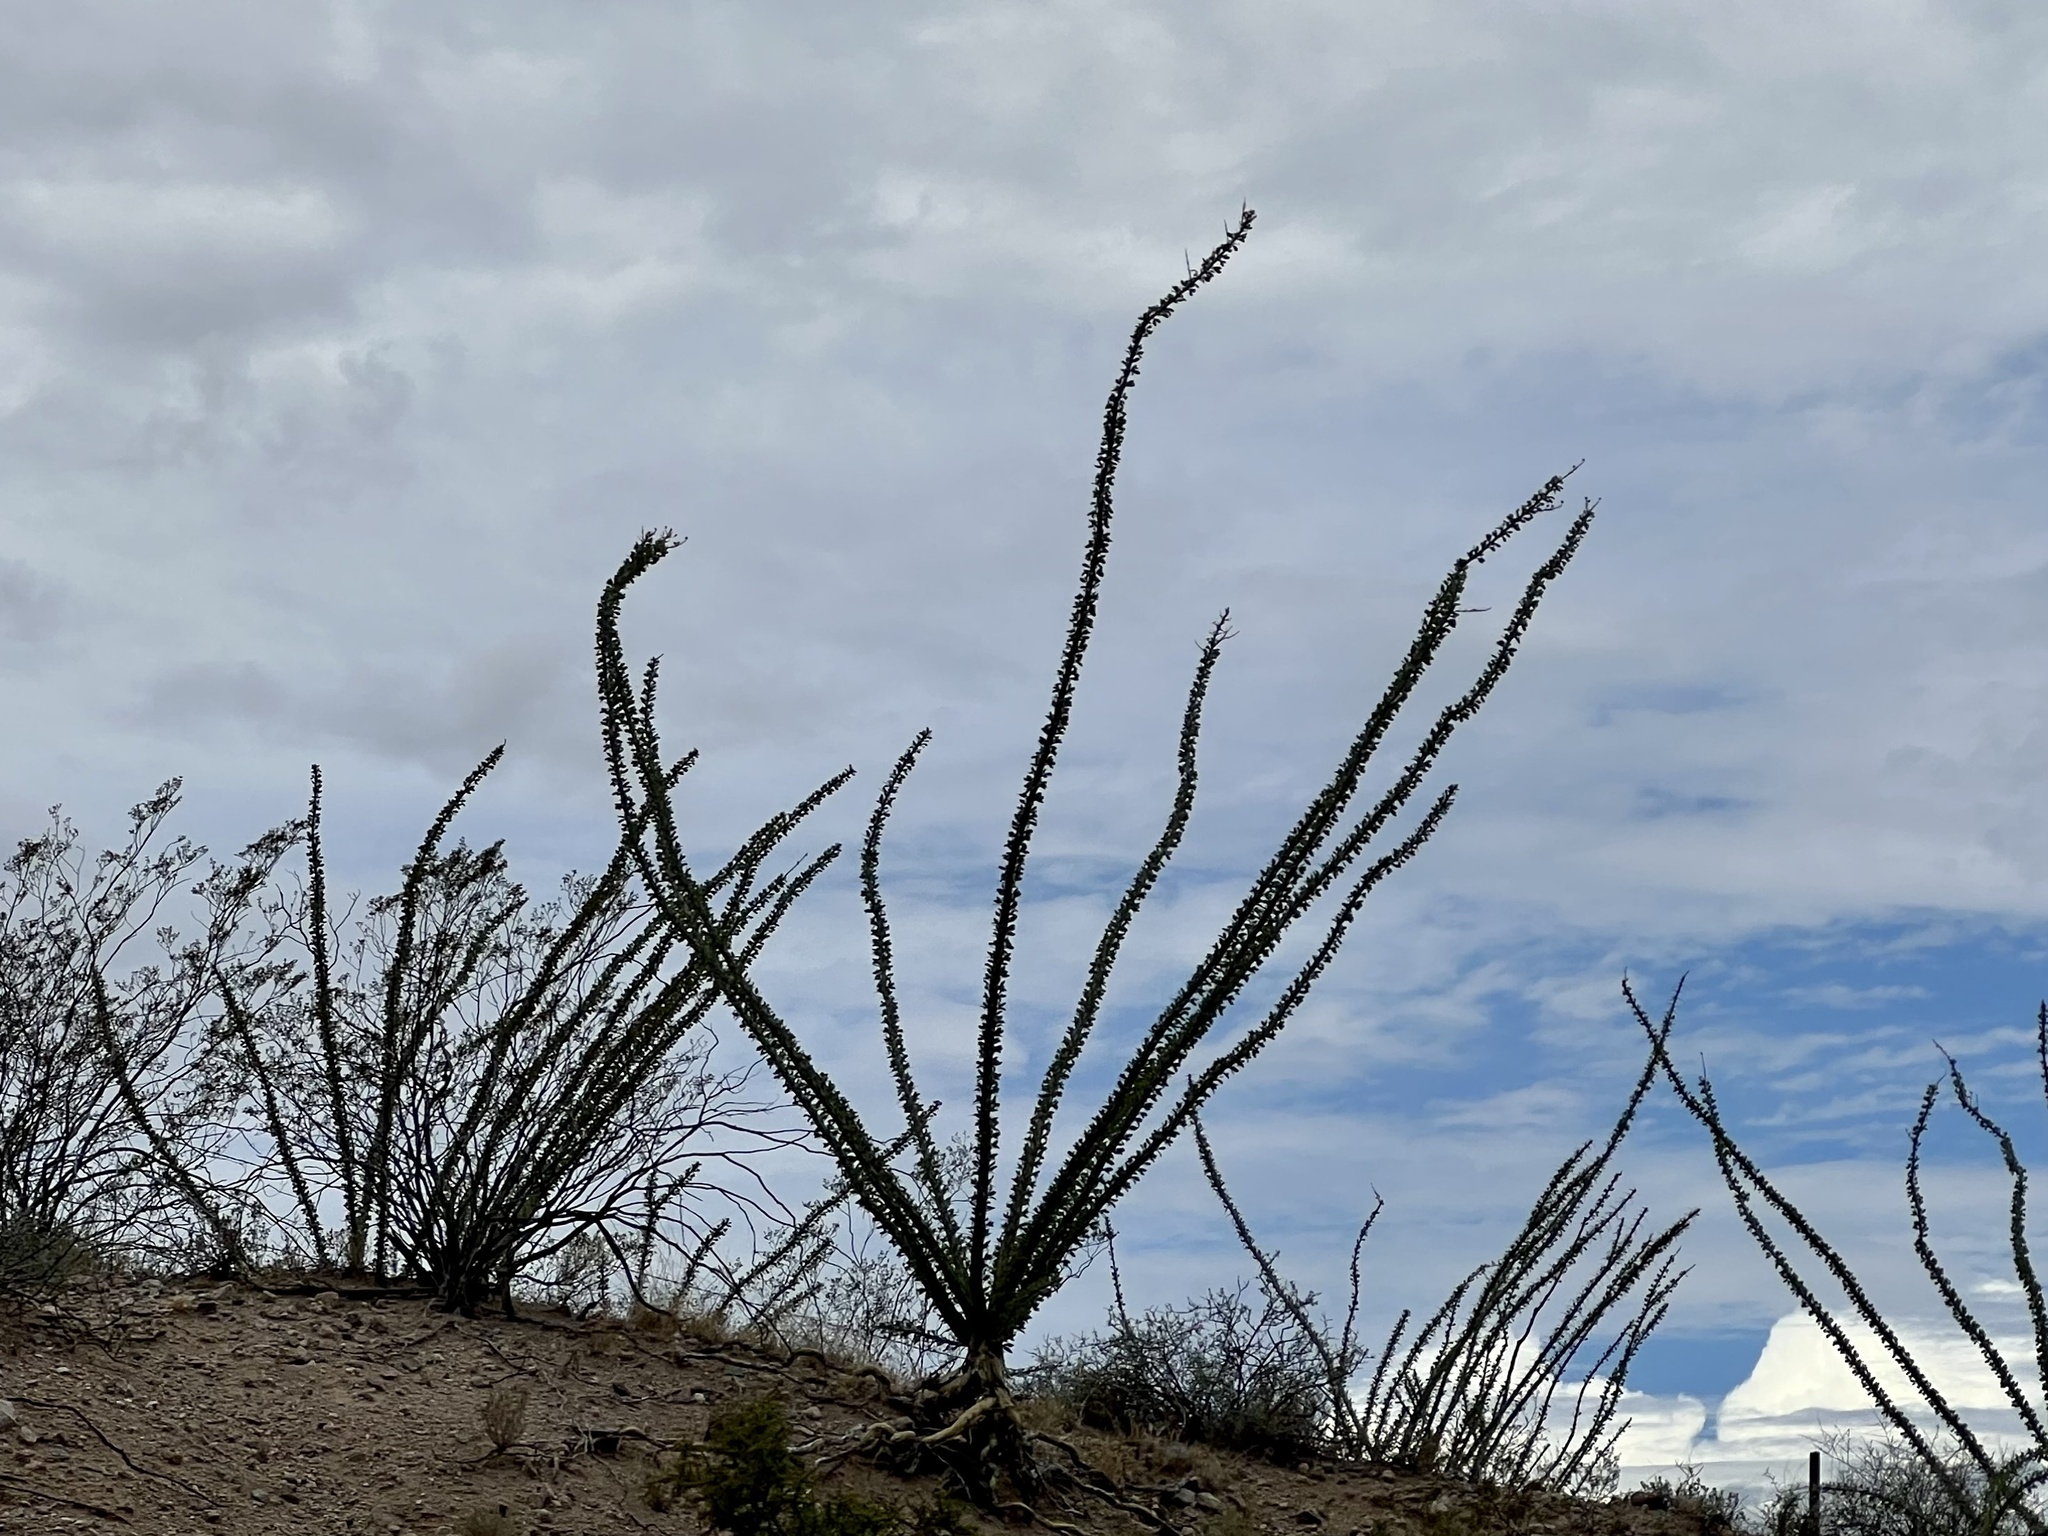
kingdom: Plantae
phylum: Tracheophyta
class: Magnoliopsida
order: Ericales
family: Fouquieriaceae
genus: Fouquieria
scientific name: Fouquieria splendens
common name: Vine-cactus
